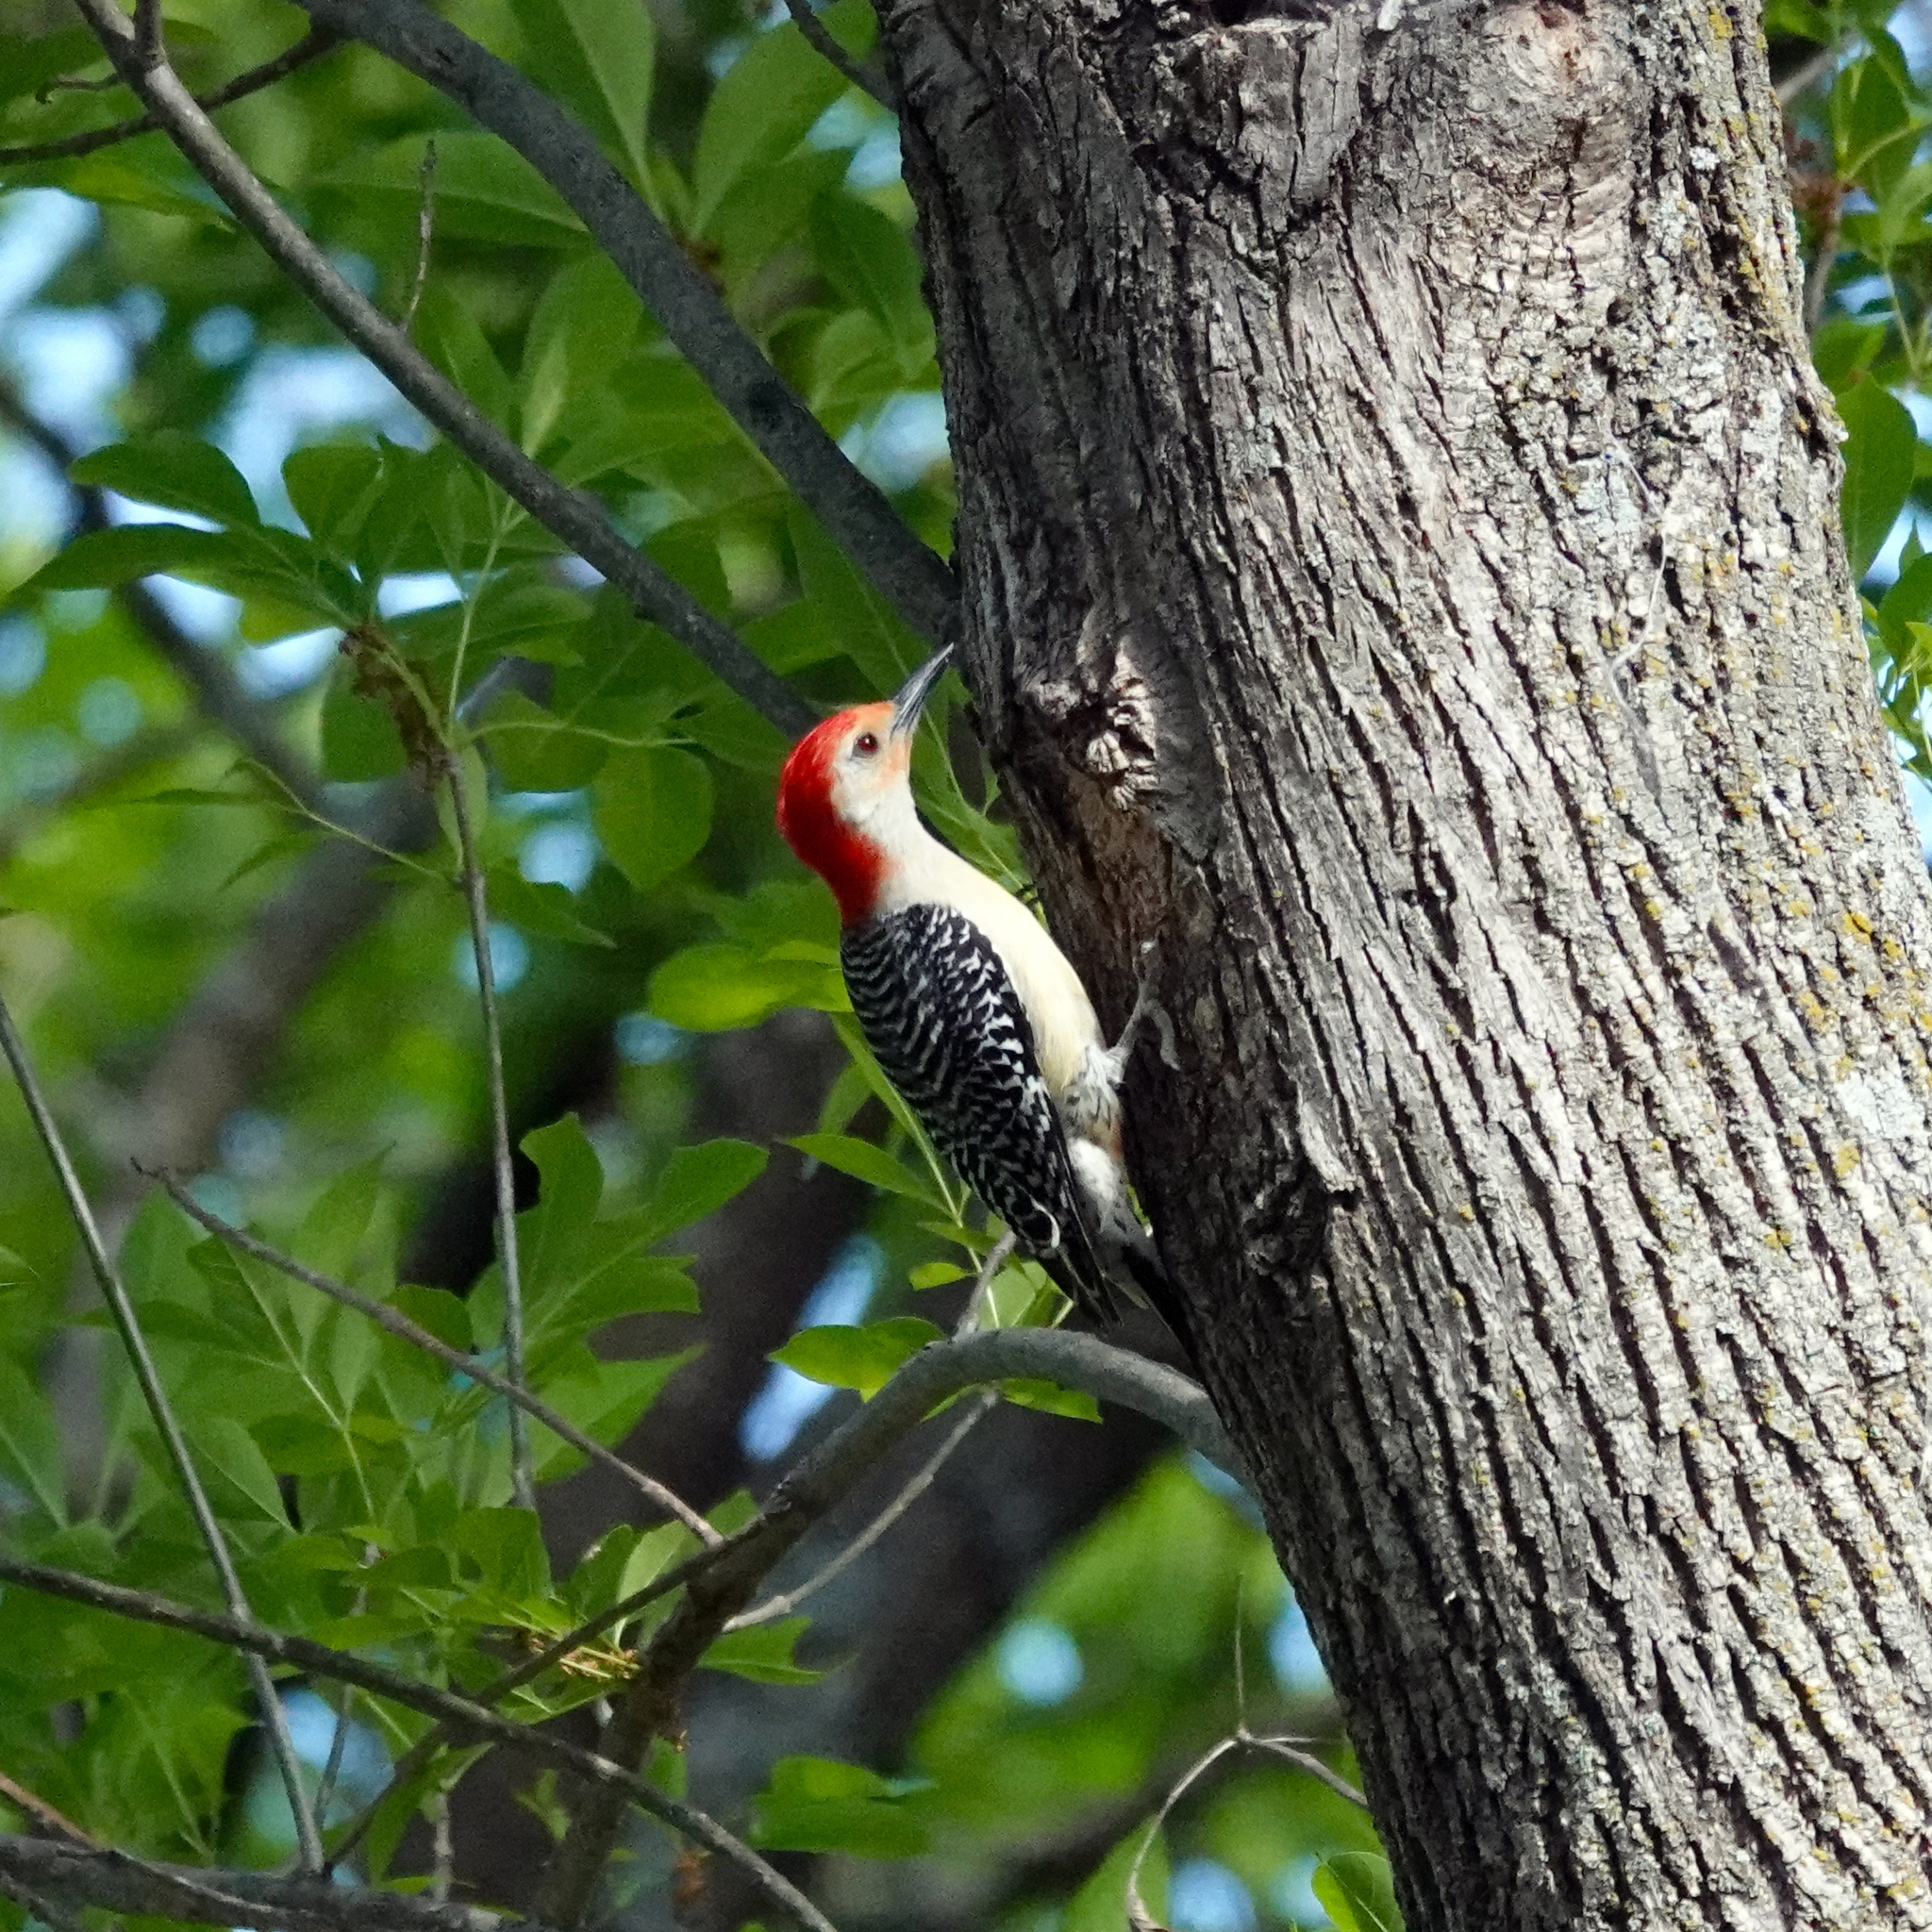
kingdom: Animalia
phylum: Chordata
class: Aves
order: Piciformes
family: Picidae
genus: Melanerpes
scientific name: Melanerpes carolinus
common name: Red-bellied woodpecker
